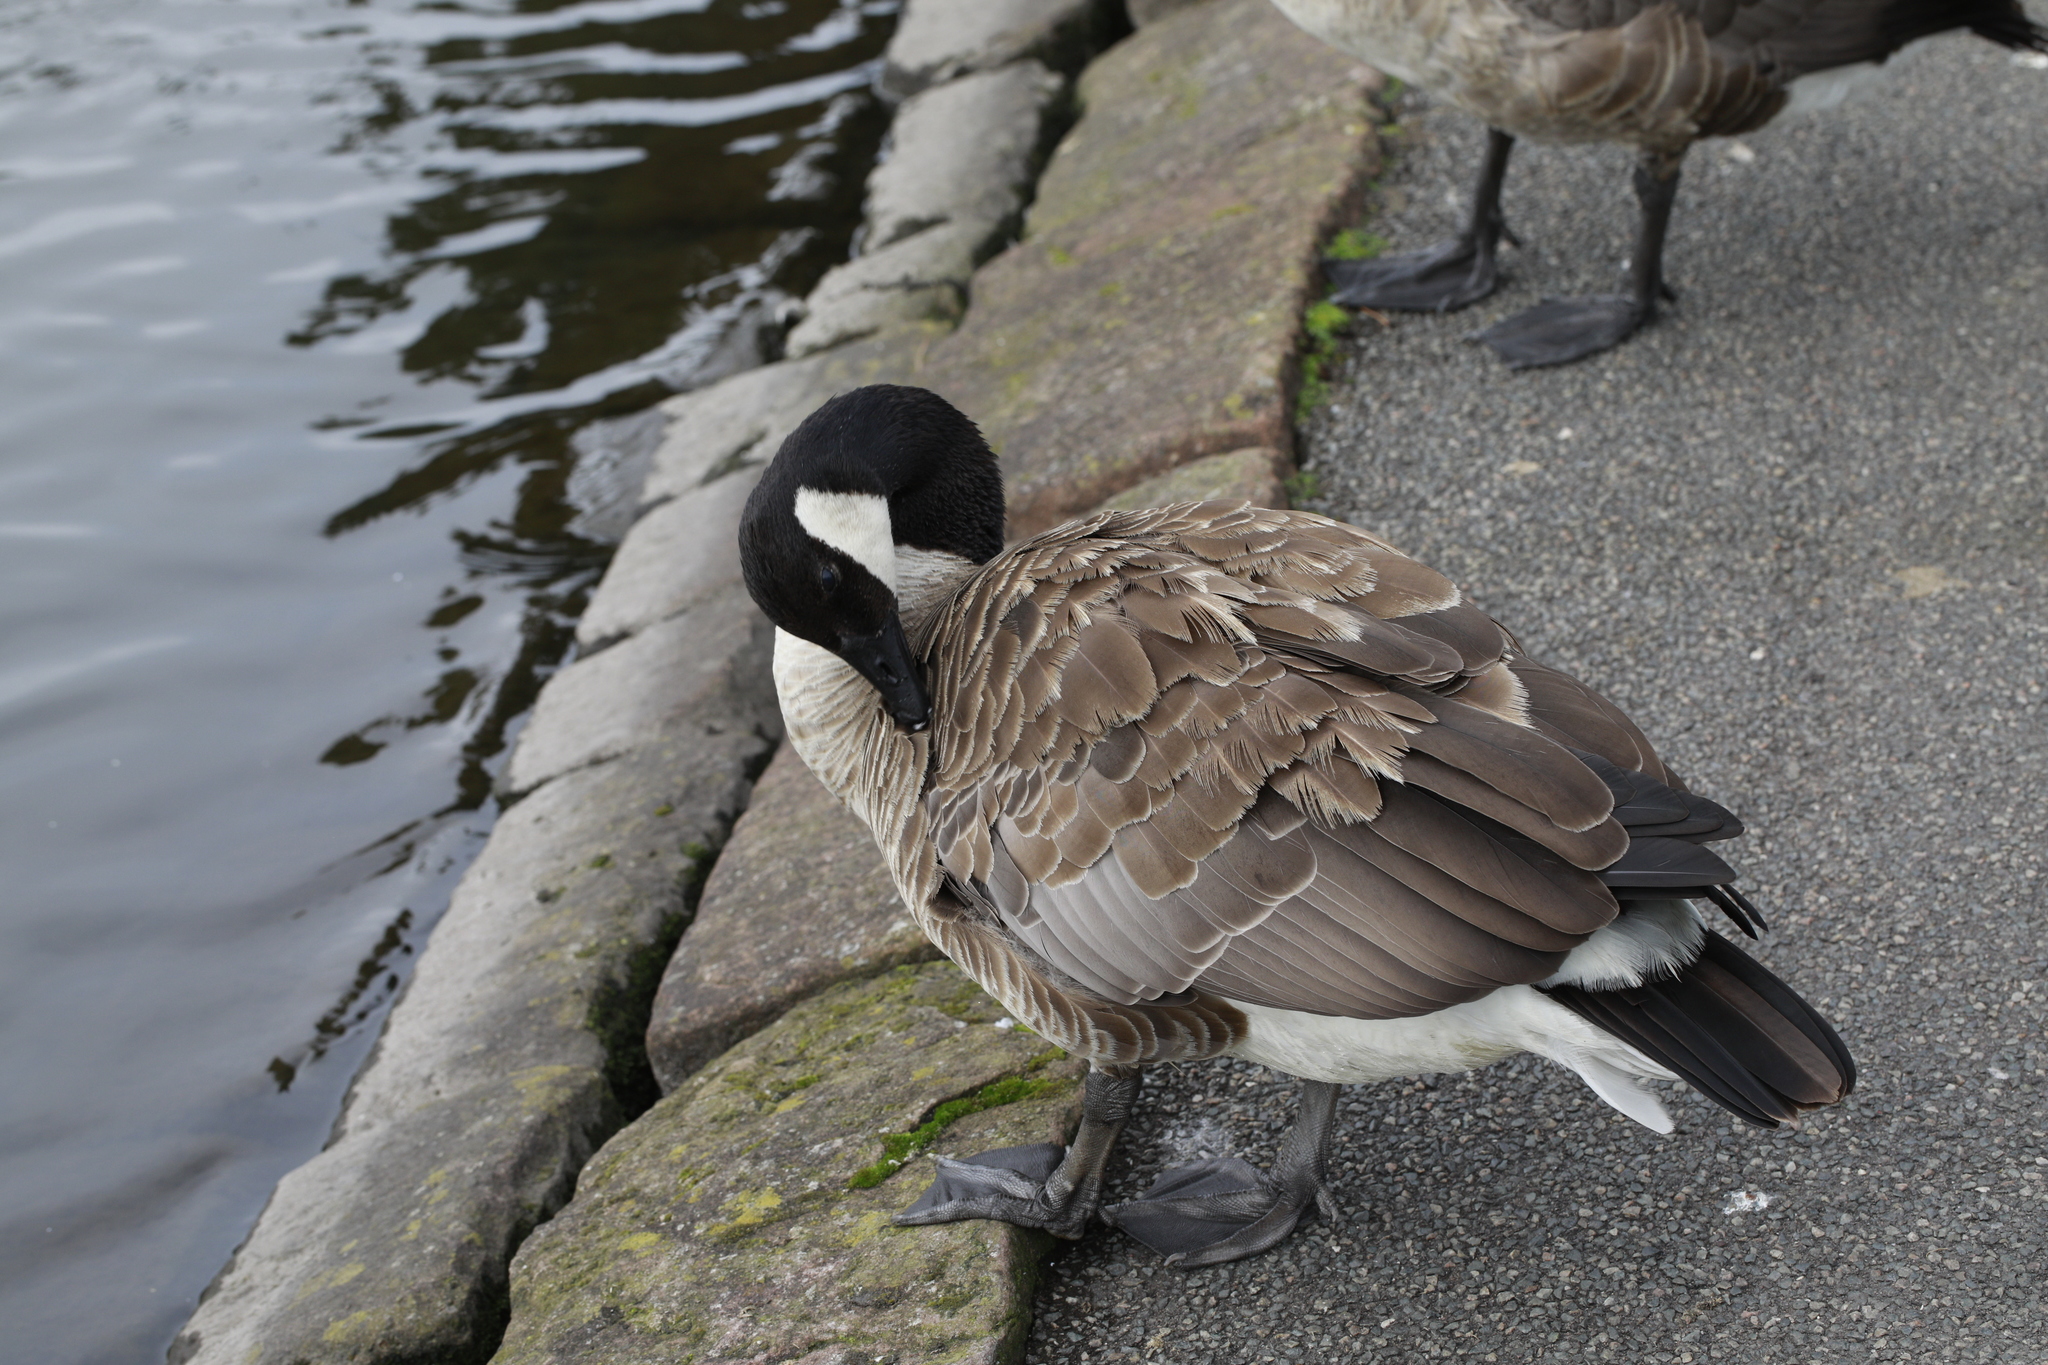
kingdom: Animalia
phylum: Chordata
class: Aves
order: Anseriformes
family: Anatidae
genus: Branta
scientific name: Branta canadensis
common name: Canada goose
